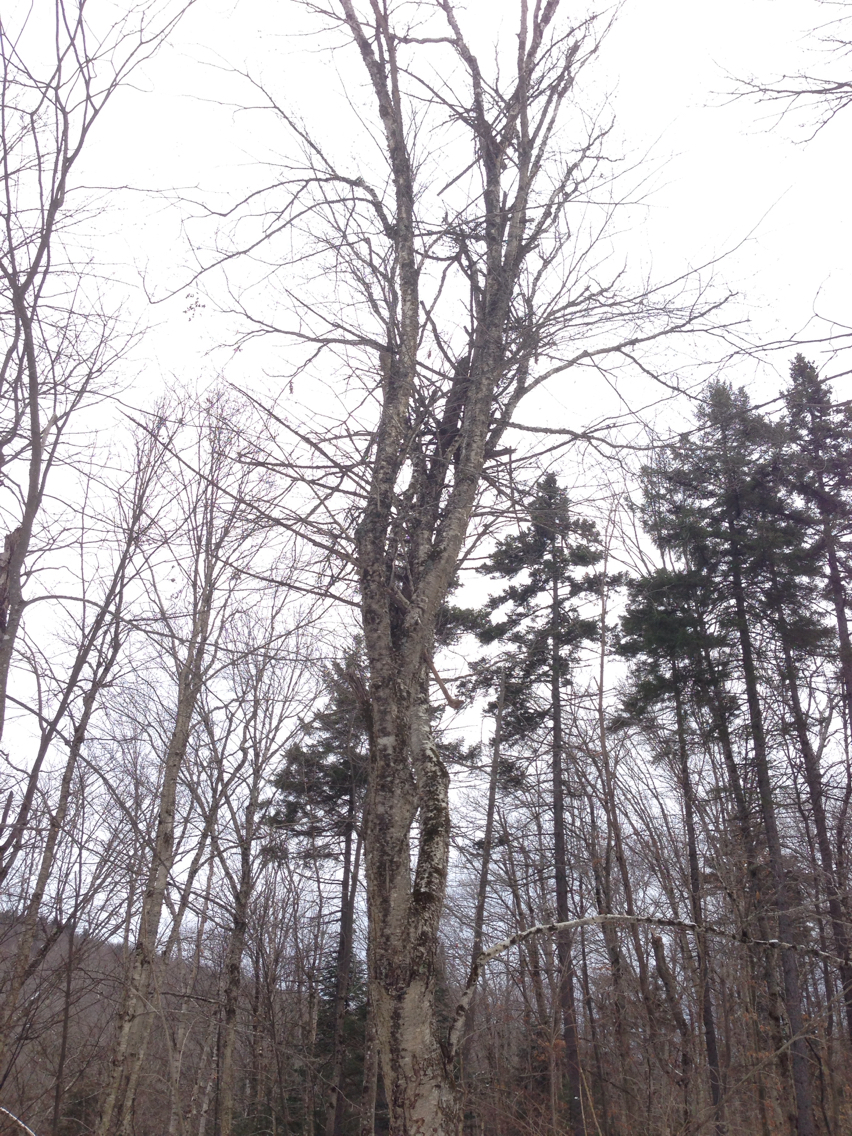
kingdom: Plantae
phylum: Tracheophyta
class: Magnoliopsida
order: Fagales
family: Betulaceae
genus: Betula
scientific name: Betula alleghaniensis
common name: Yellow birch
